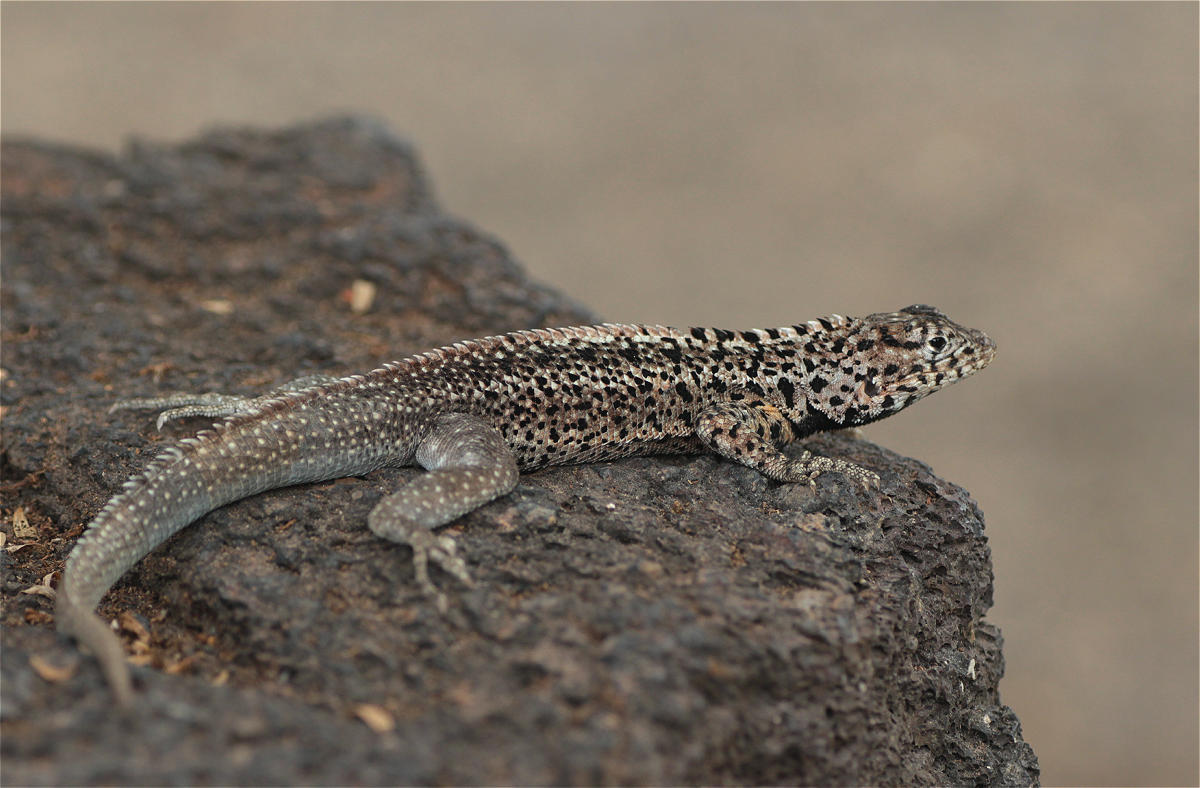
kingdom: Animalia
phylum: Chordata
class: Squamata
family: Tropiduridae
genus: Microlophus
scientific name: Microlophus albemarlensis
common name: Galapagos lava lizard
